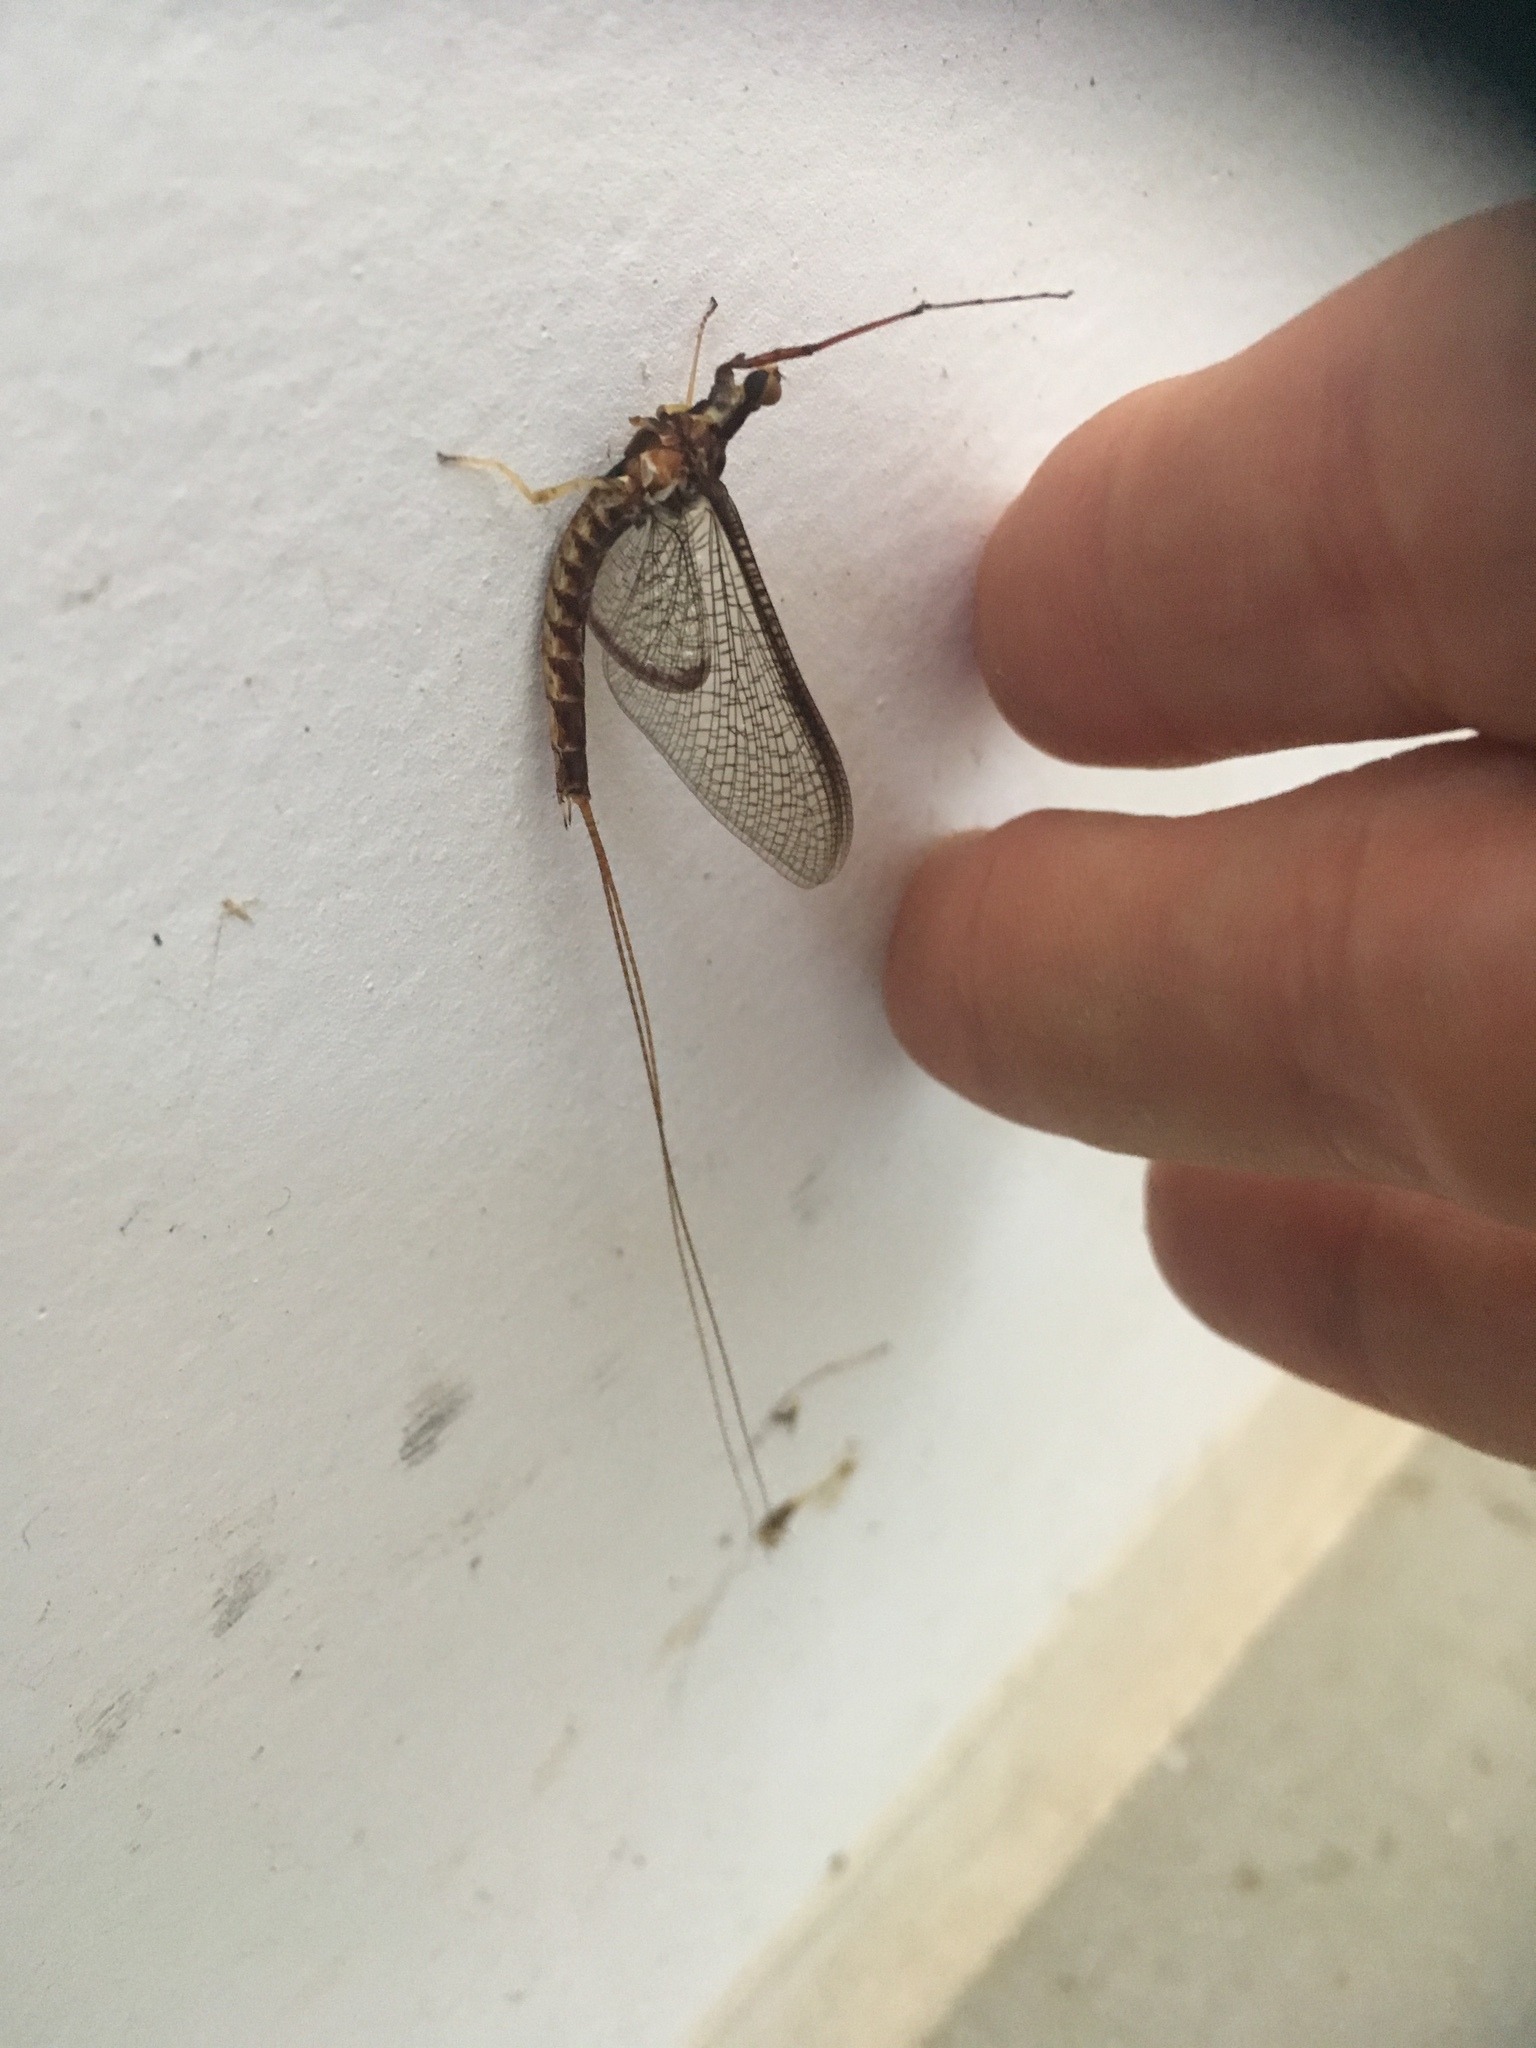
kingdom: Animalia
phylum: Arthropoda
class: Insecta
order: Ephemeroptera
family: Ephemeridae
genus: Hexagenia
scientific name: Hexagenia limbata
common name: Giant mayfly
